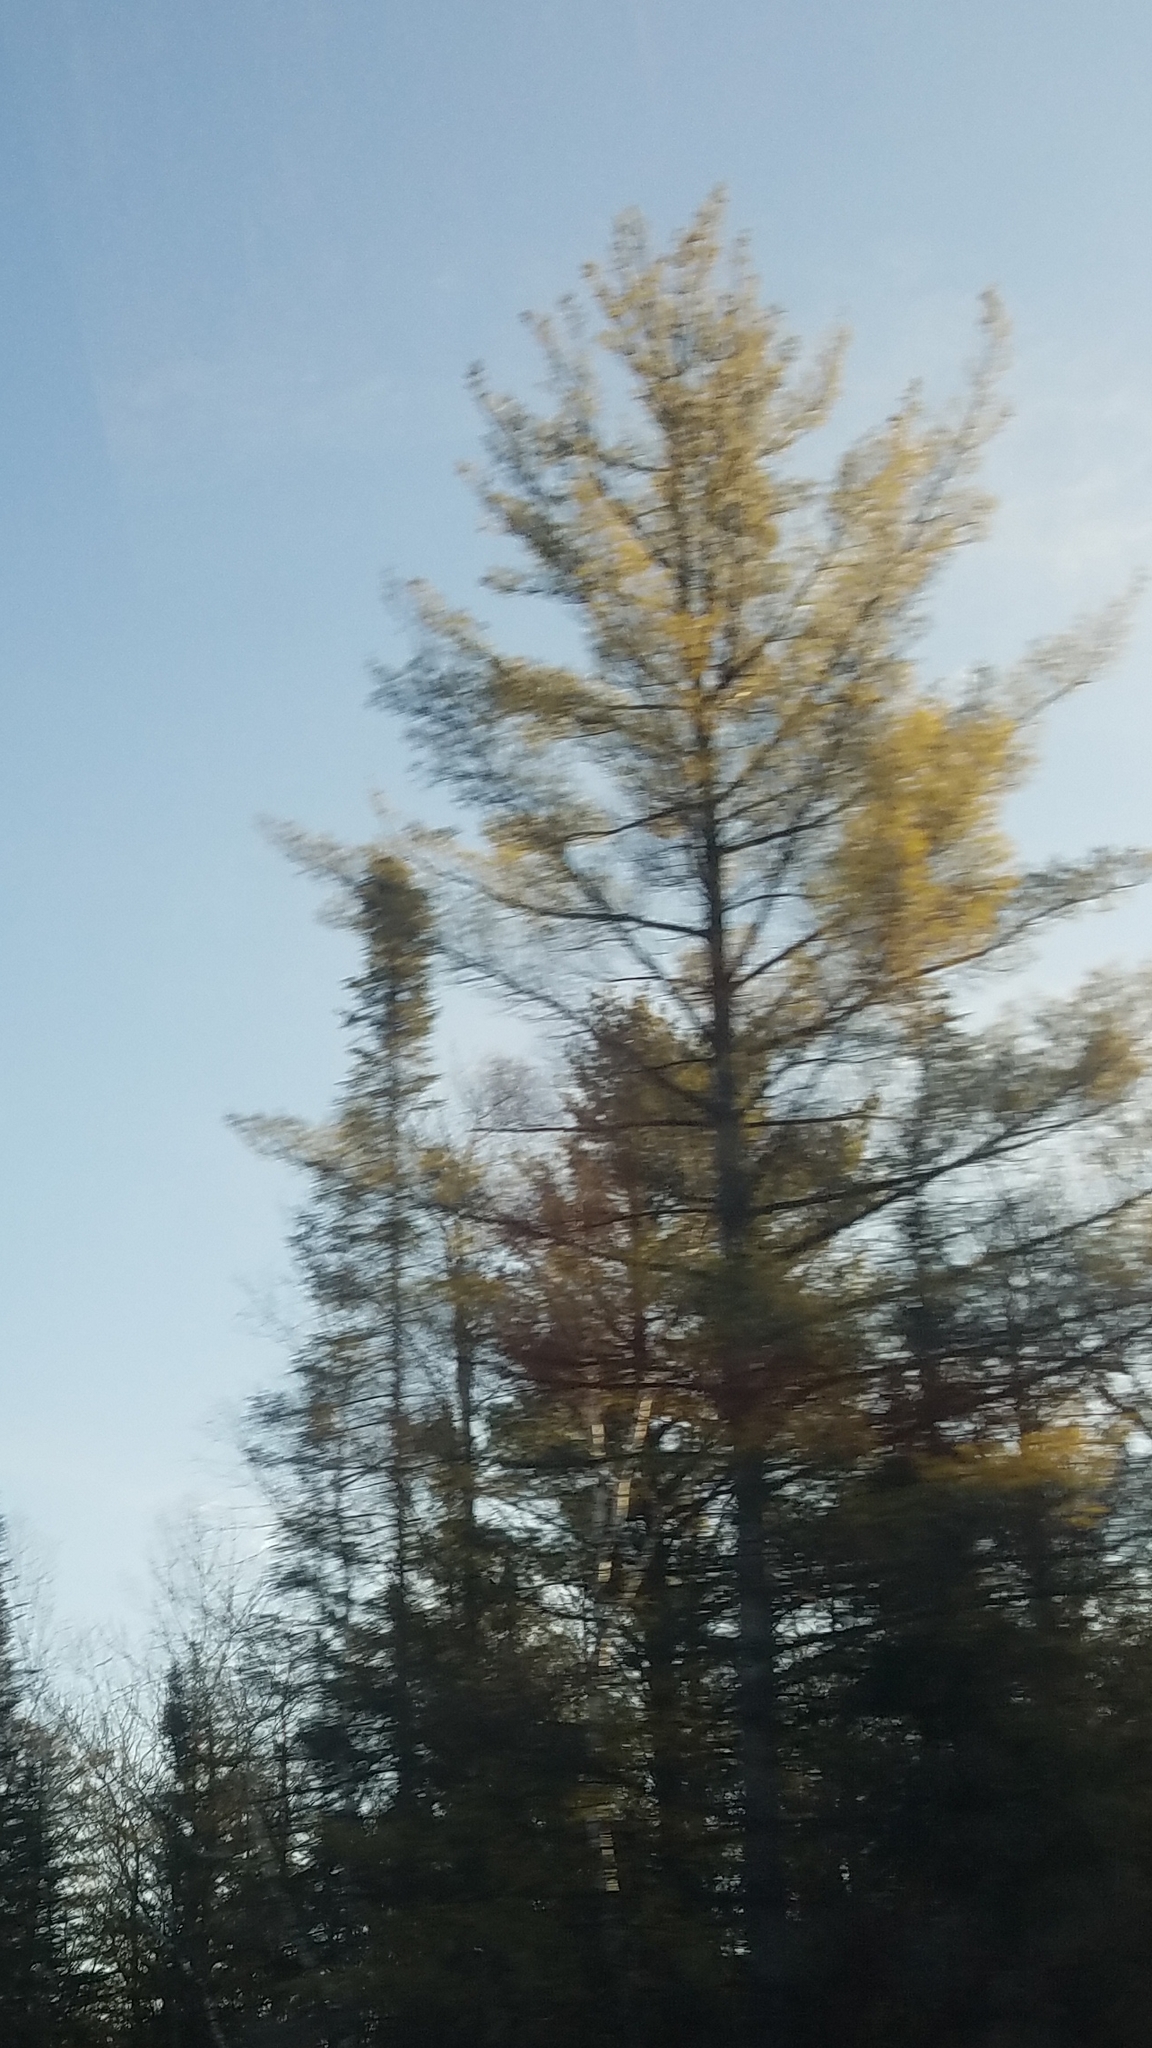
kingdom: Plantae
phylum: Tracheophyta
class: Pinopsida
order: Pinales
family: Pinaceae
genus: Pinus
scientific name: Pinus strobus
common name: Weymouth pine
